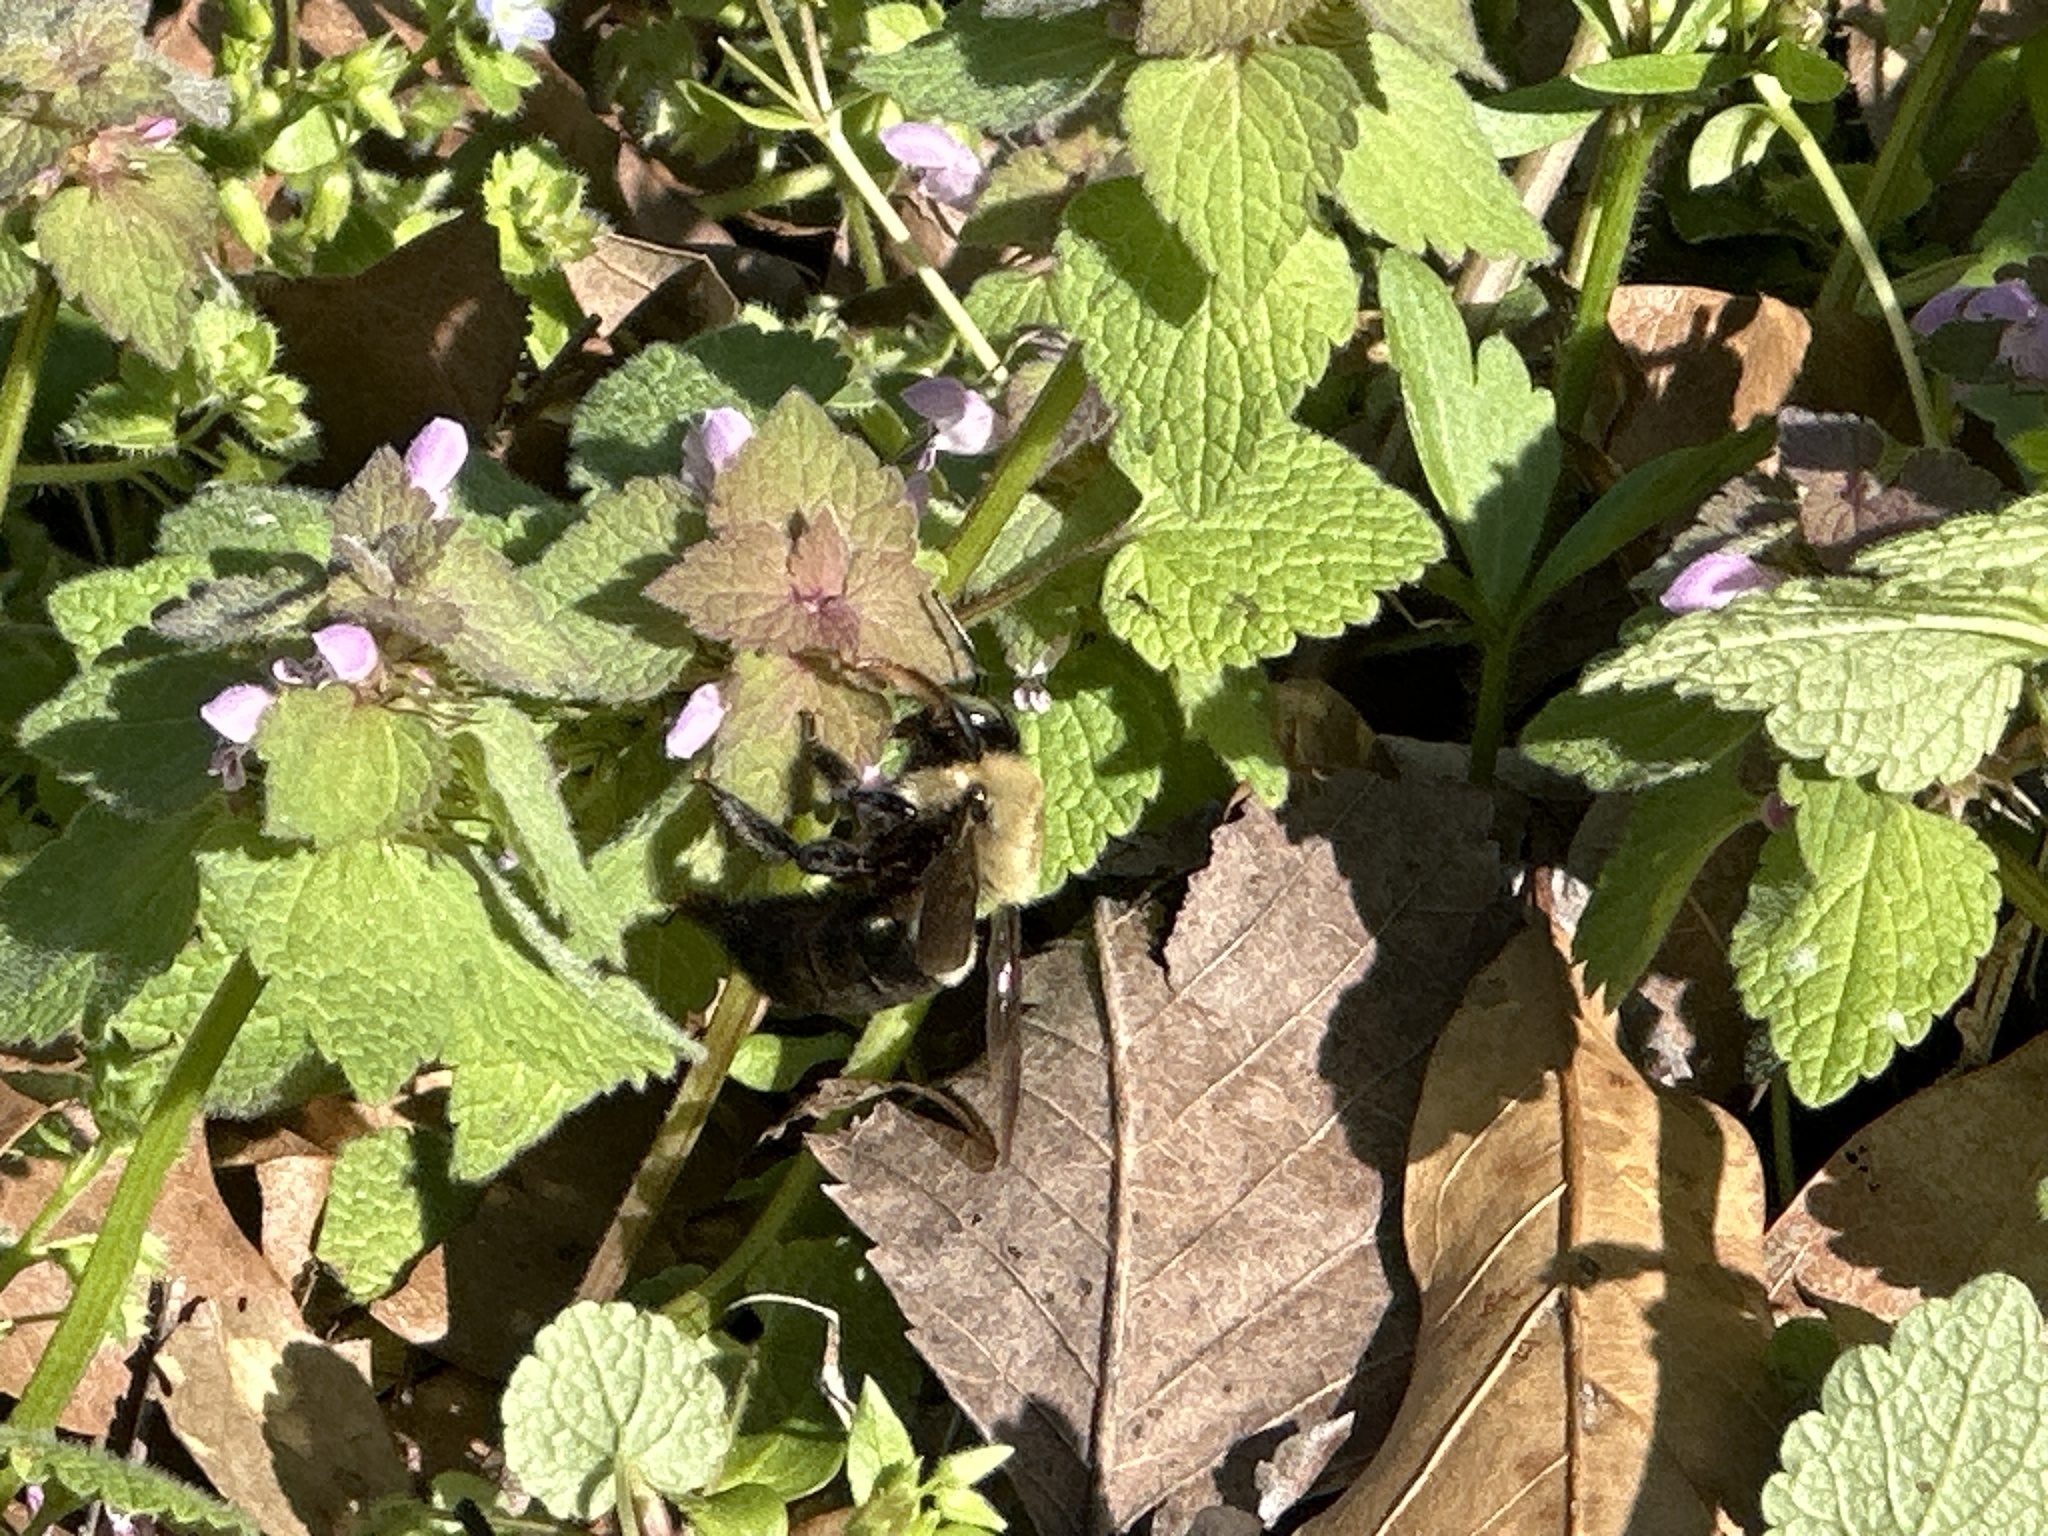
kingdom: Animalia
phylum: Arthropoda
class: Insecta
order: Hymenoptera
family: Apidae
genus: Xylocopa
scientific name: Xylocopa virginica
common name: Carpenter bee
